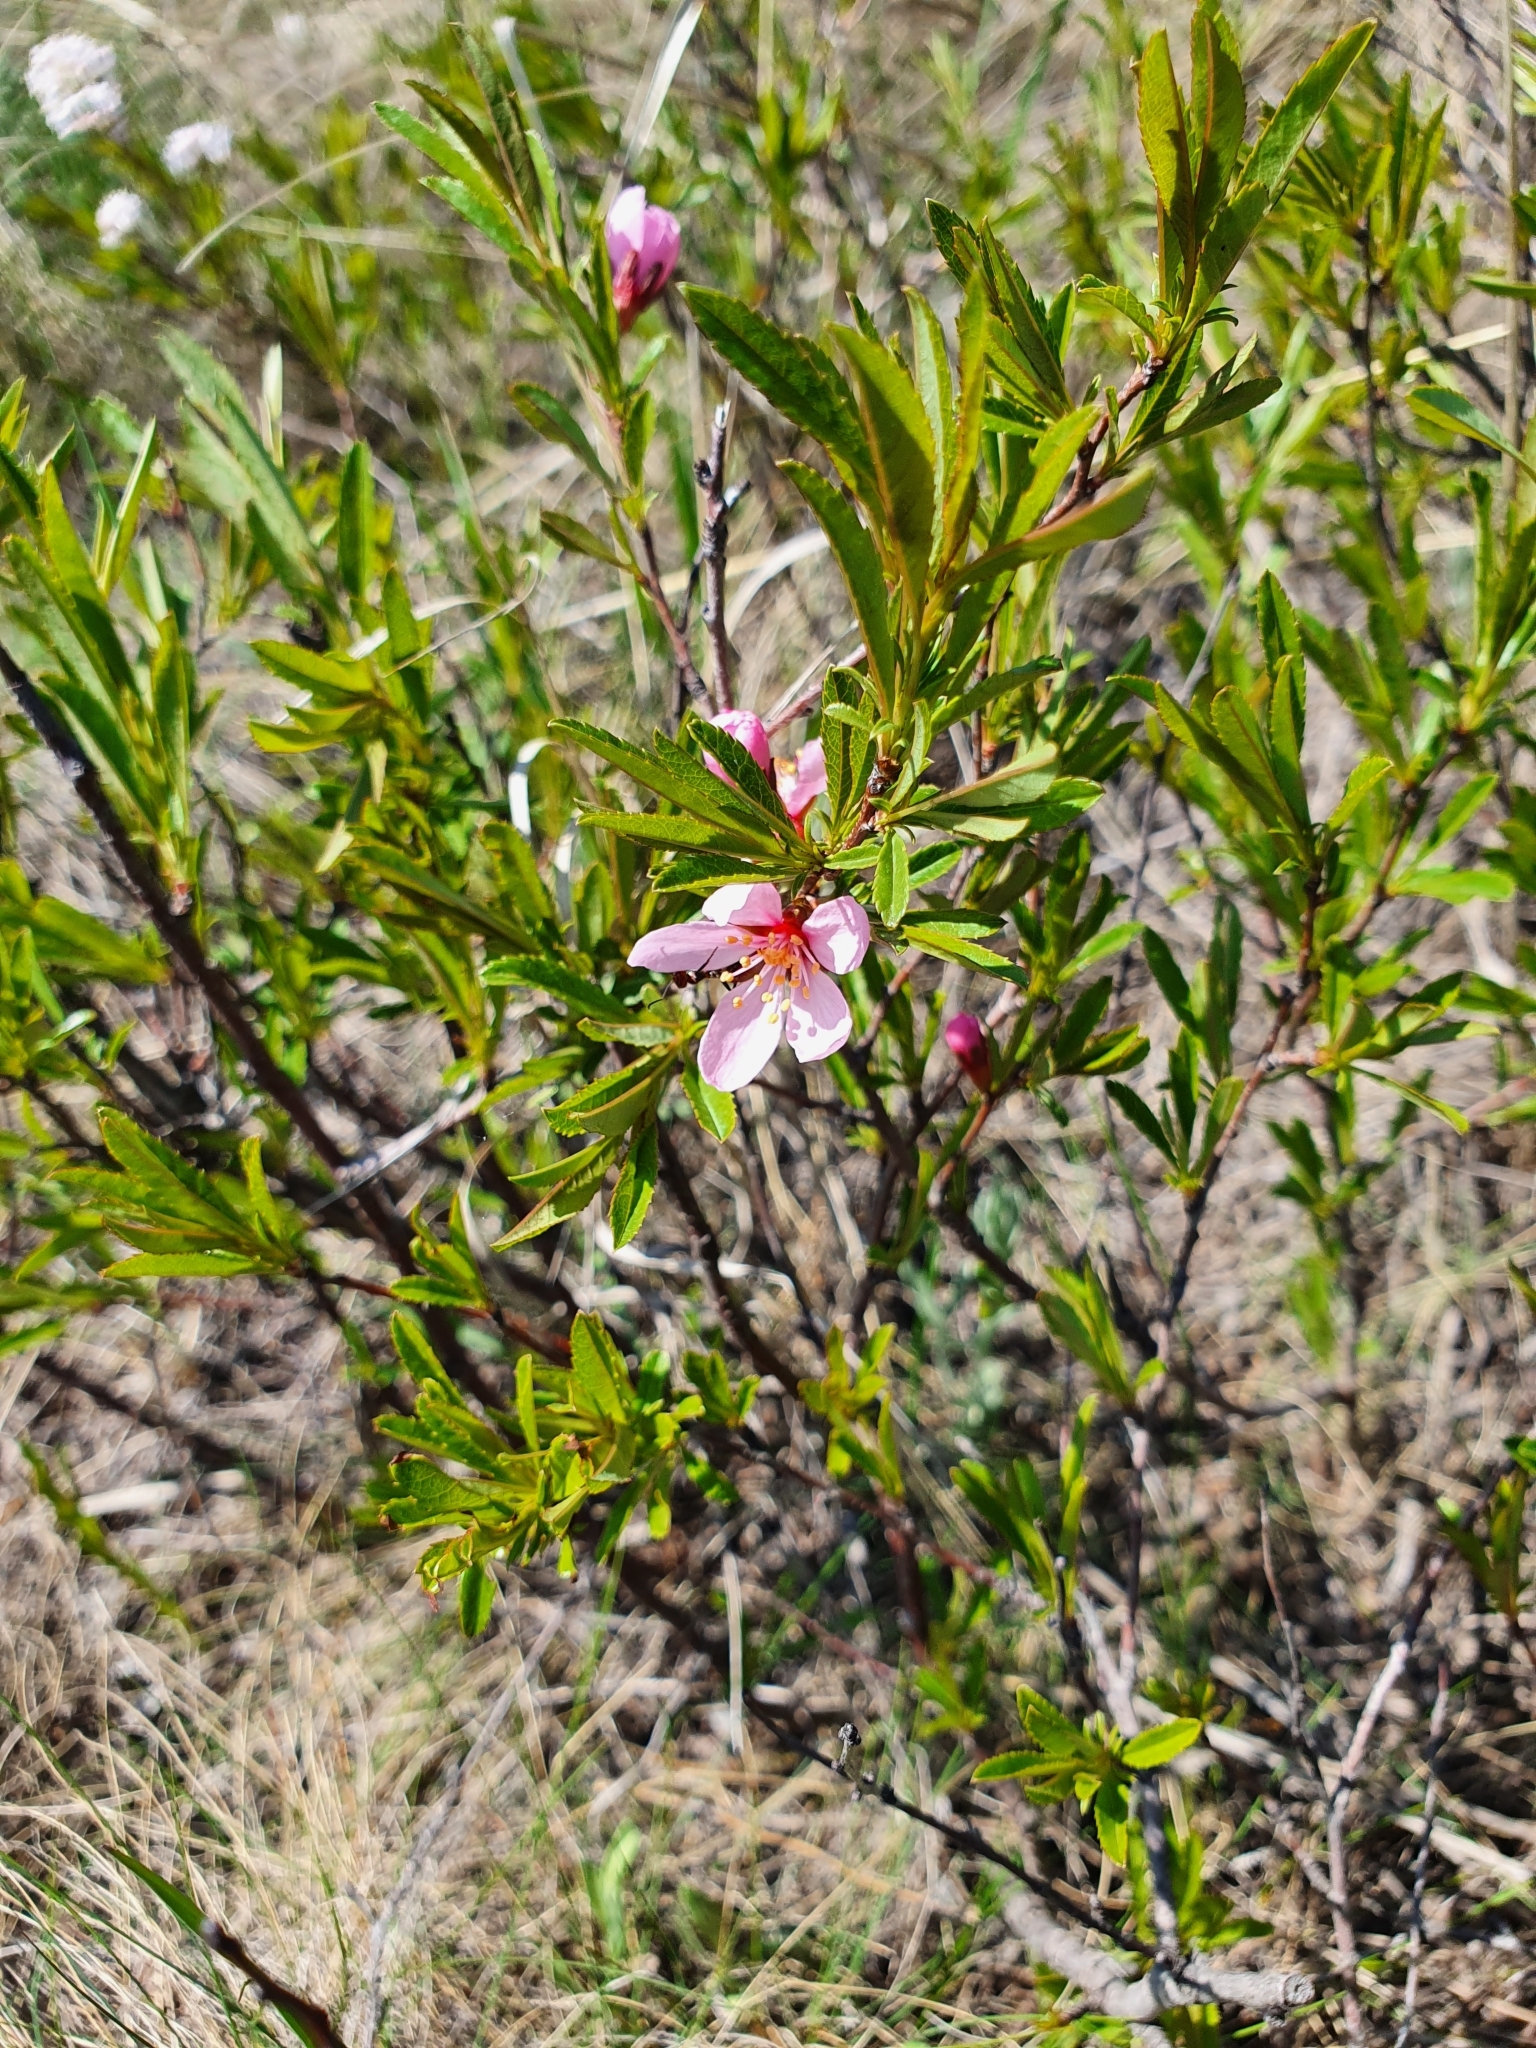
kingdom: Plantae
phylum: Tracheophyta
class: Magnoliopsida
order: Rosales
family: Rosaceae
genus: Prunus
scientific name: Prunus tenella
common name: Dwarf russian almond
